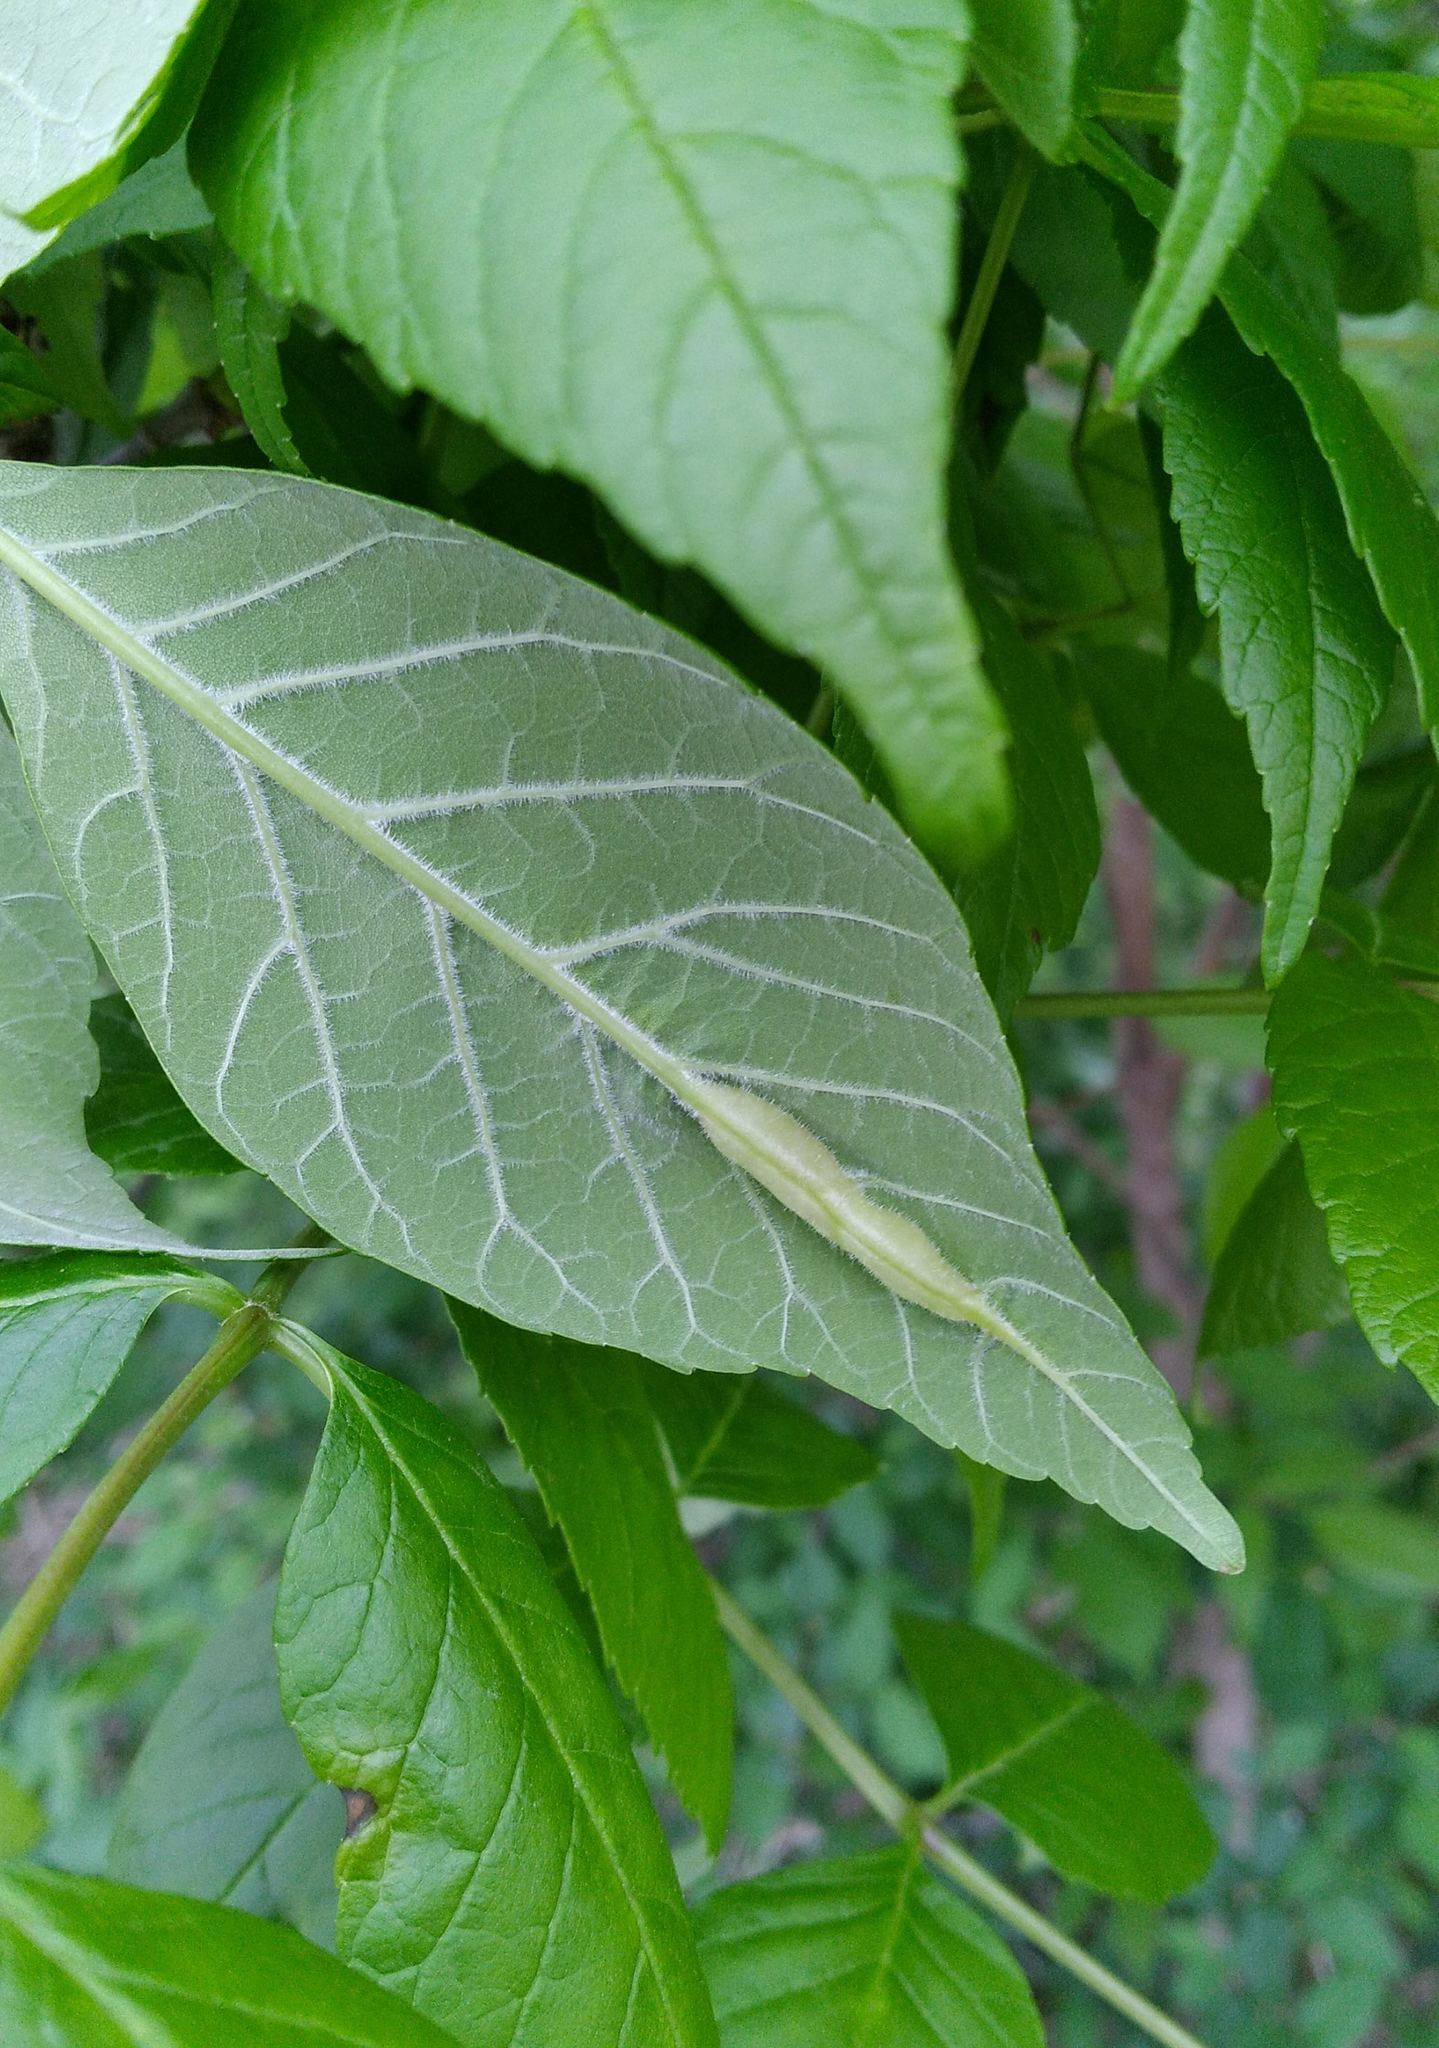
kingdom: Animalia
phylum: Arthropoda
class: Insecta
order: Diptera
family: Cecidomyiidae
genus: Dasineura
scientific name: Dasineura tumidosae
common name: Ash petiole gall midge
